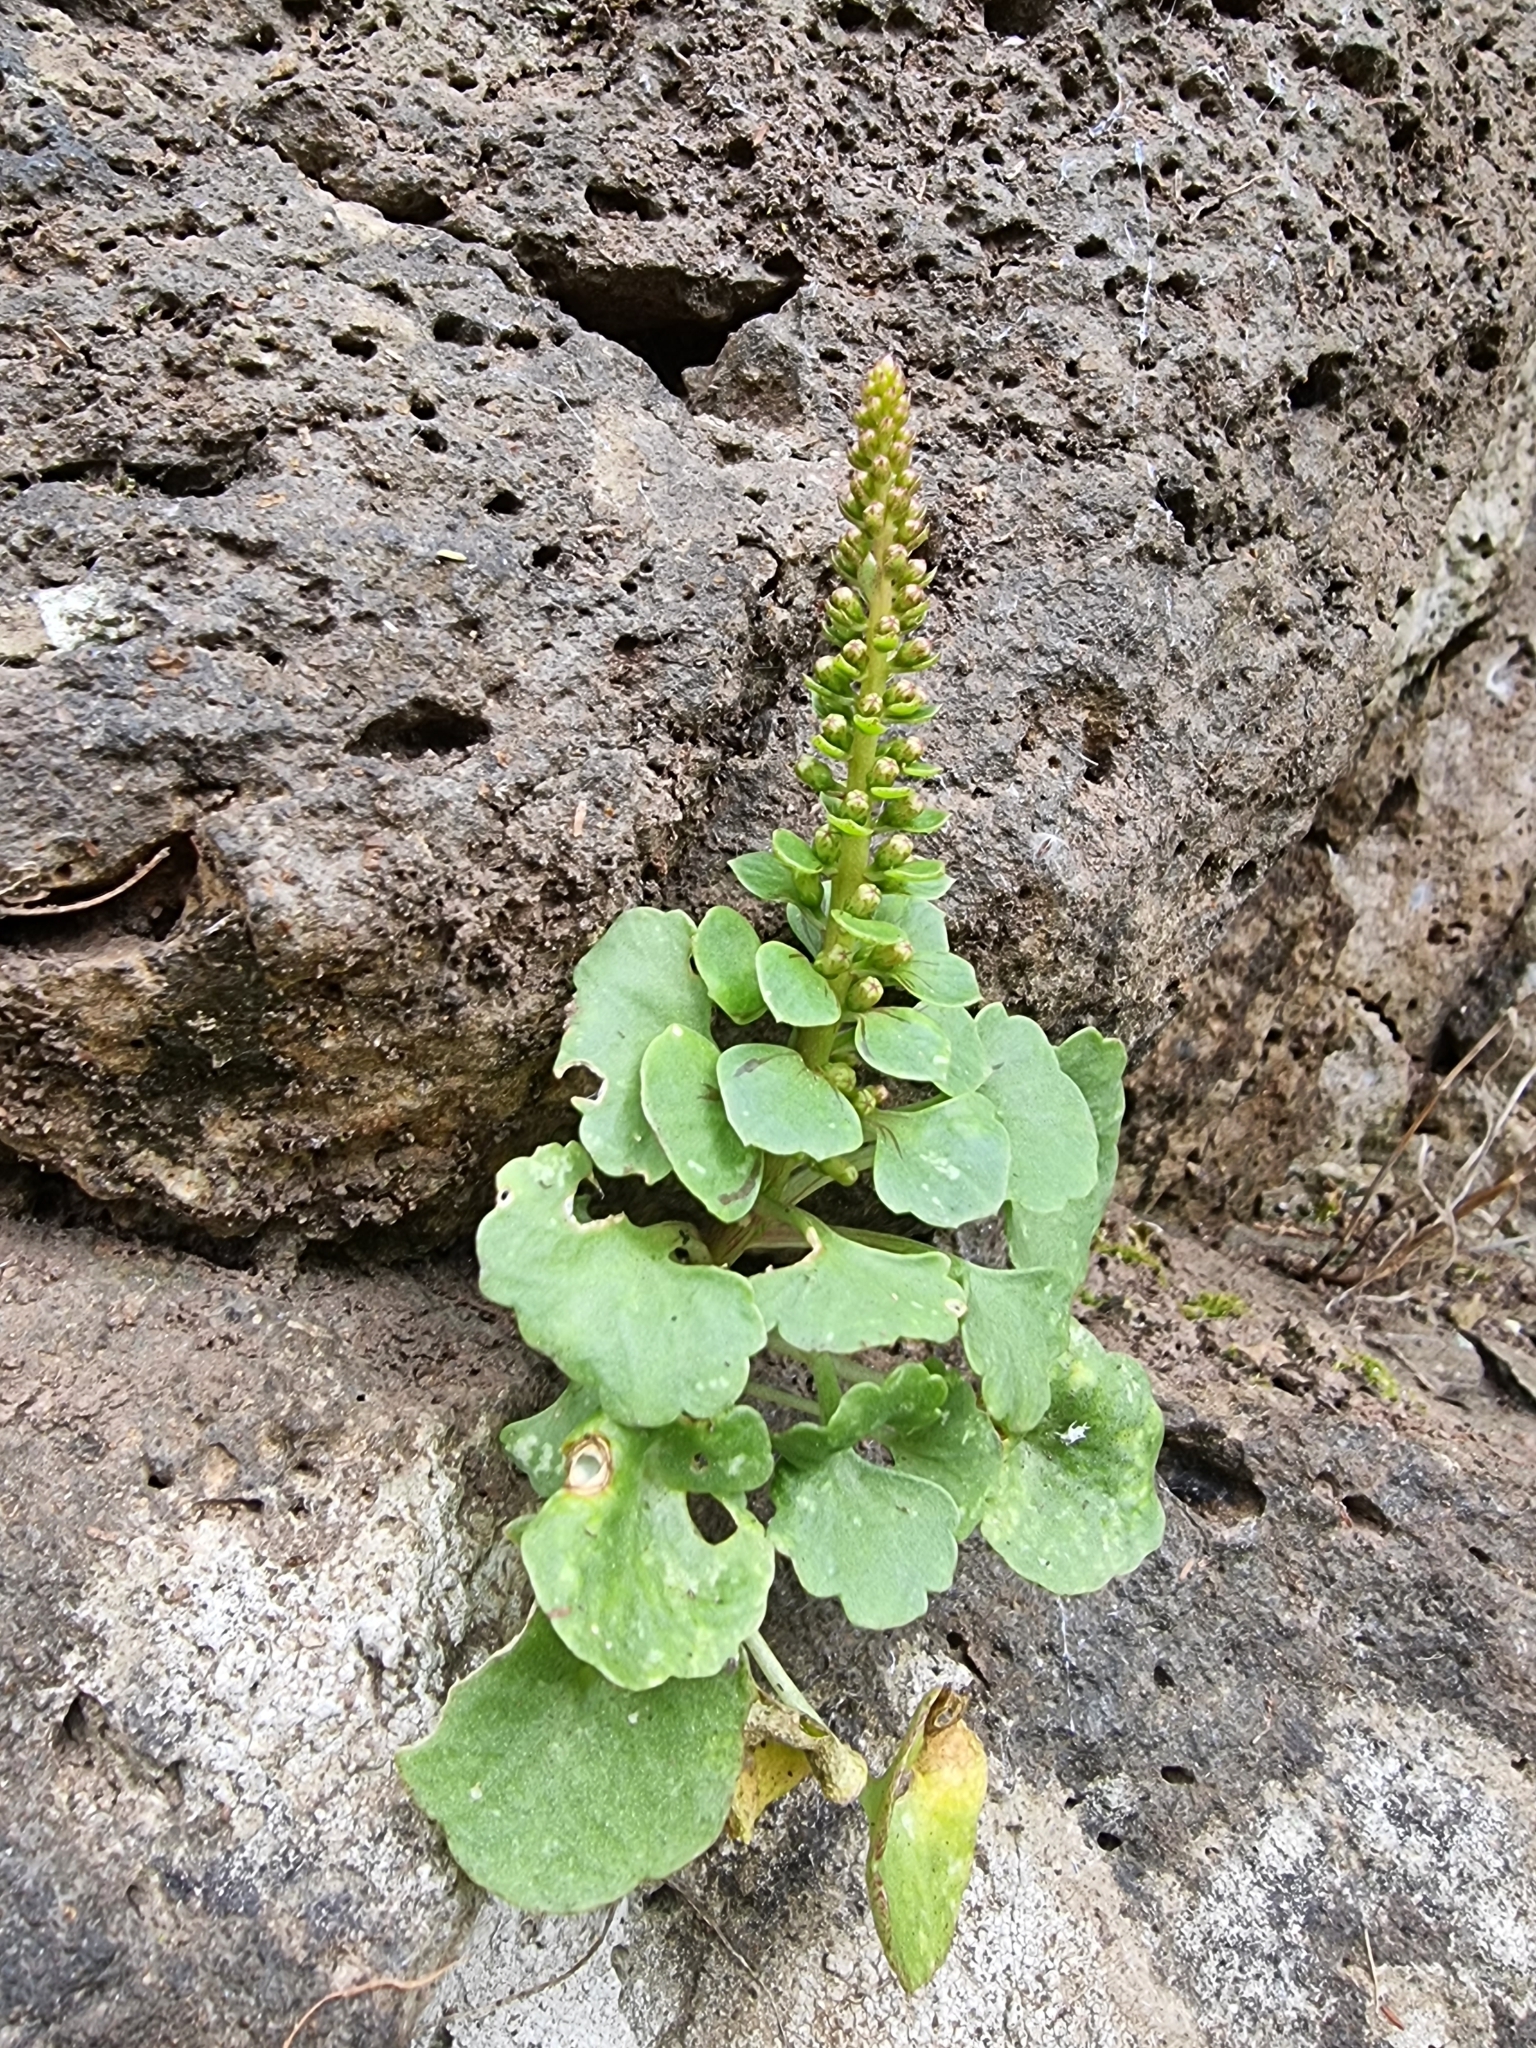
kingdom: Plantae
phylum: Tracheophyta
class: Magnoliopsida
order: Saxifragales
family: Crassulaceae
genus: Umbilicus
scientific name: Umbilicus rupestris
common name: Navelwort
